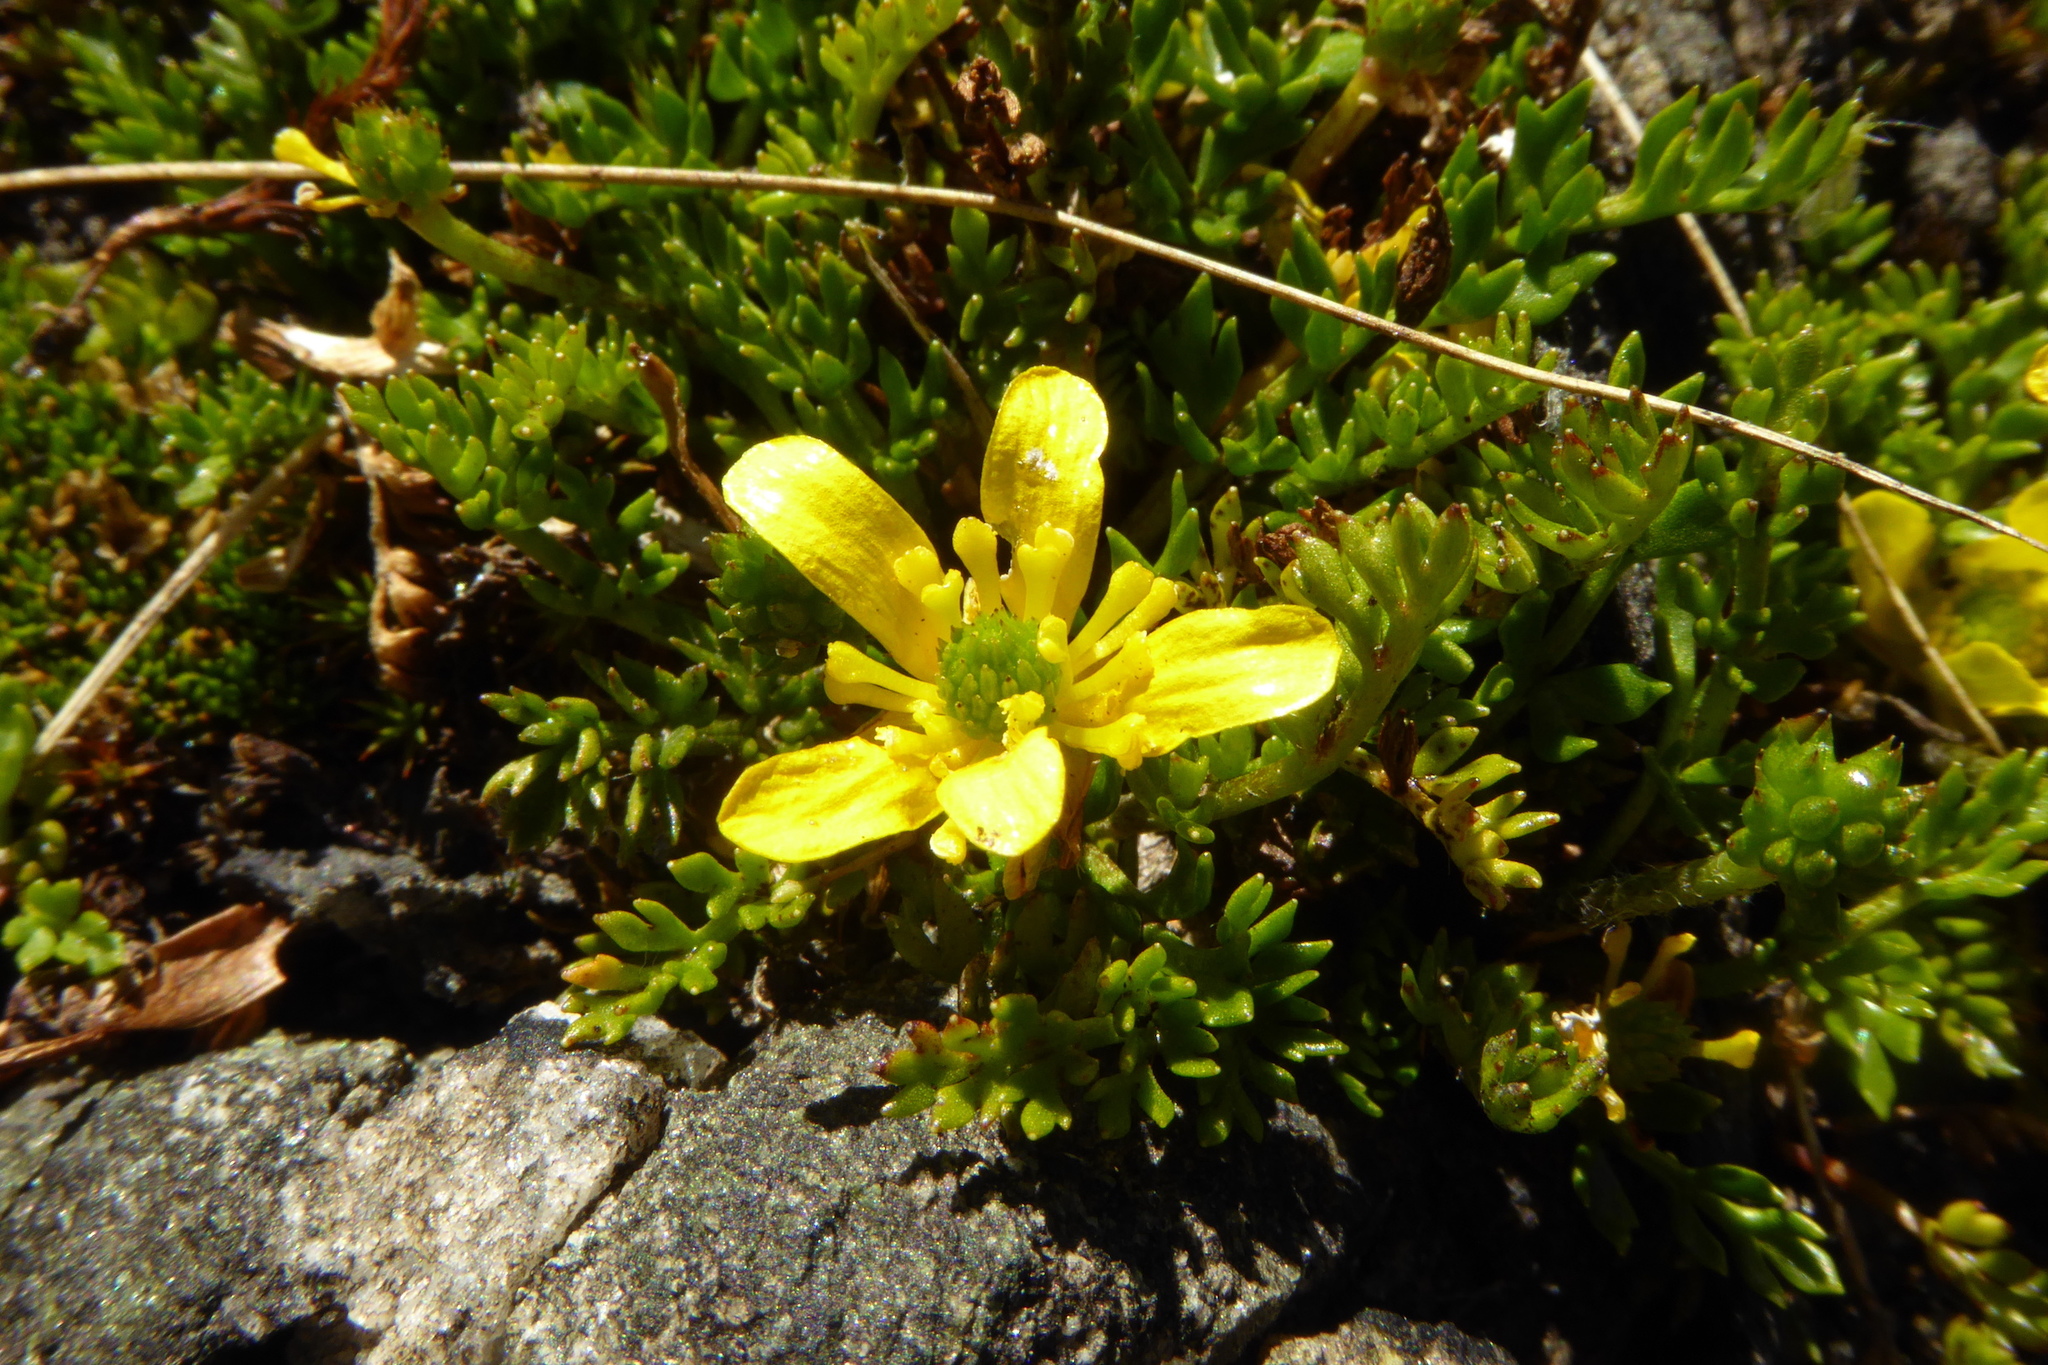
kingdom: Plantae
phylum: Tracheophyta
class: Magnoliopsida
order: Ranunculales
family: Ranunculaceae
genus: Ranunculus
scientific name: Ranunculus gracilipes
